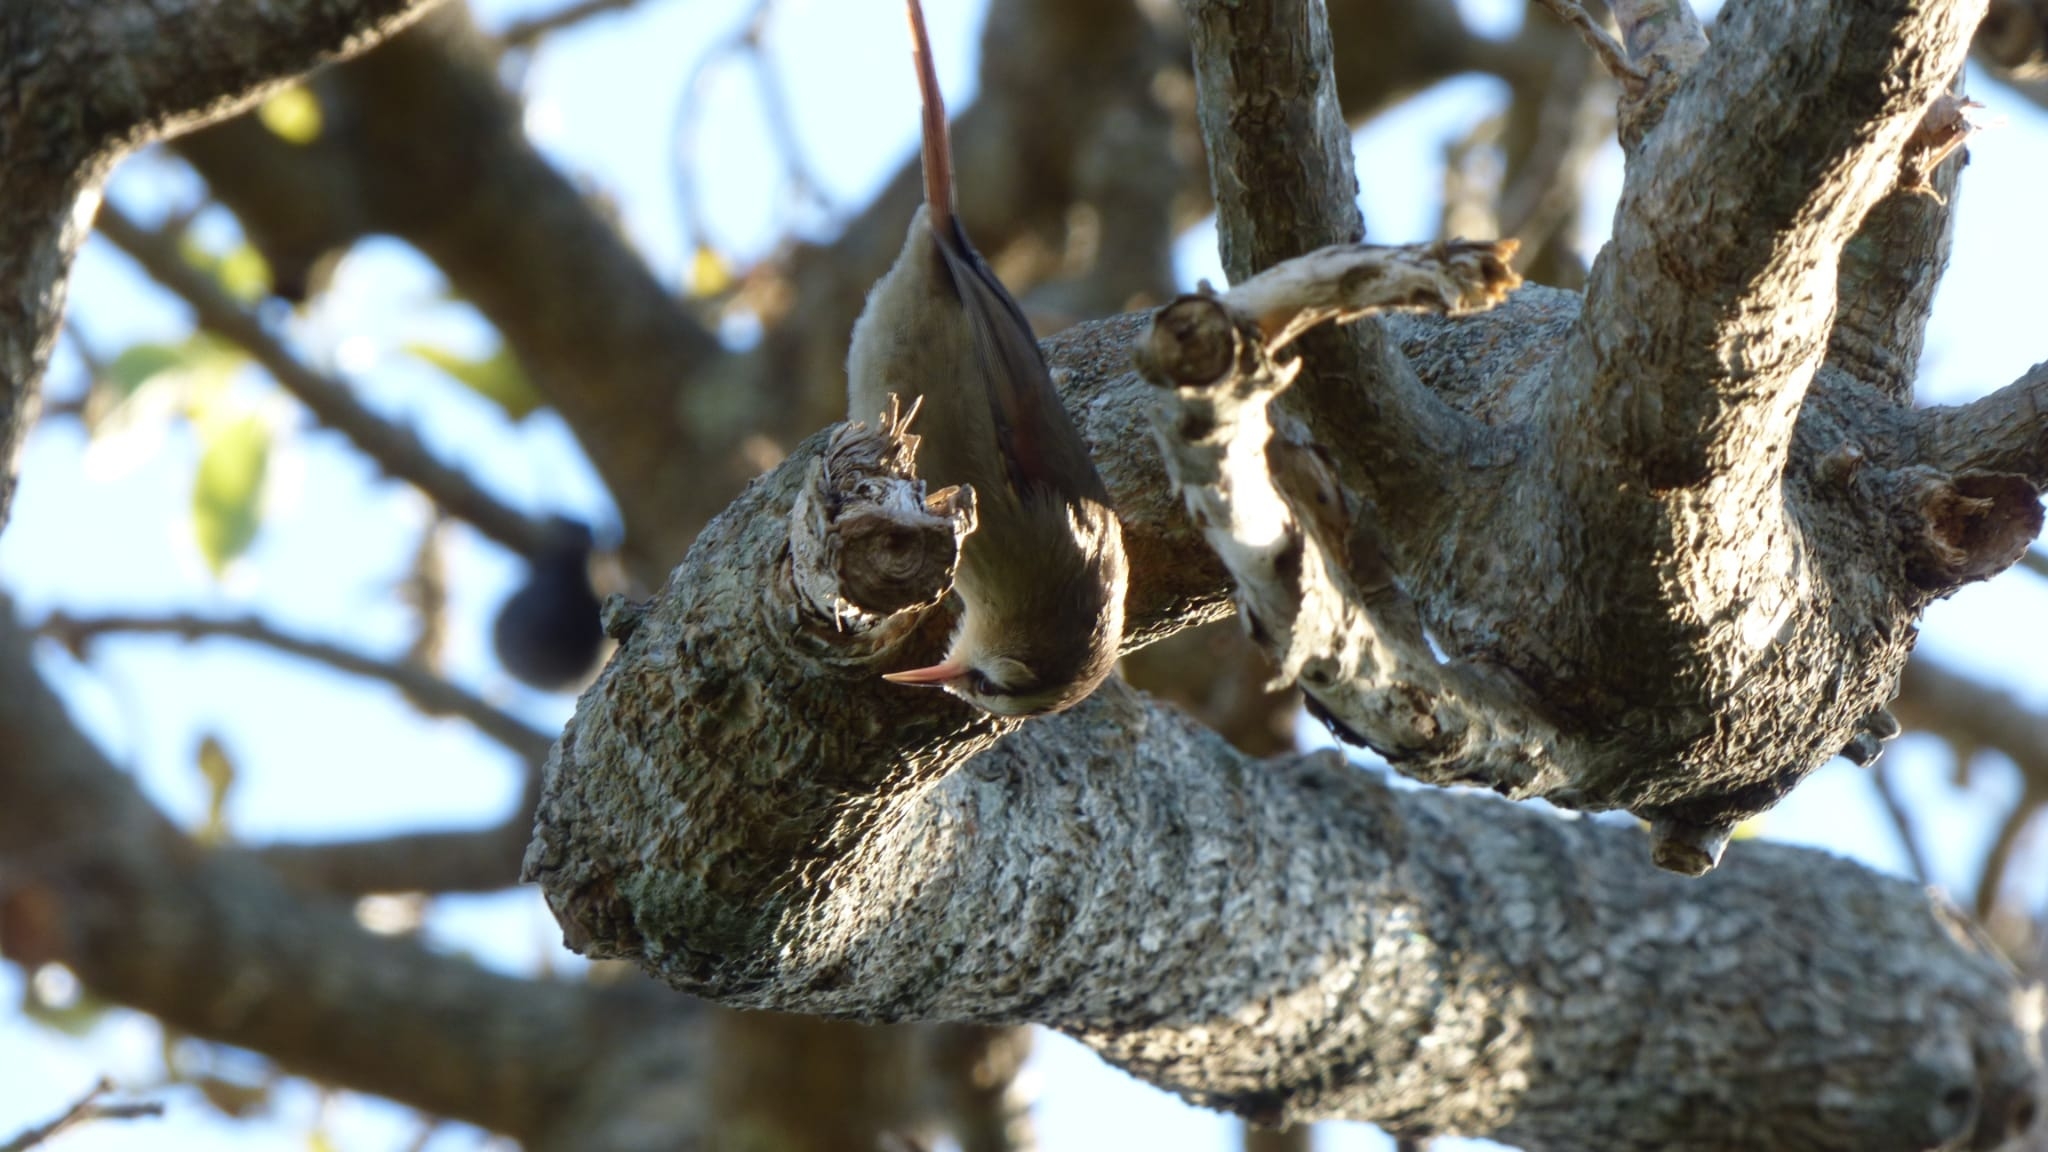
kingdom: Animalia
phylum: Chordata
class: Aves
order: Passeriformes
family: Furnariidae
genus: Cranioleuca
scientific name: Cranioleuca pyrrhophia
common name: Stripe-crowned spinetail
